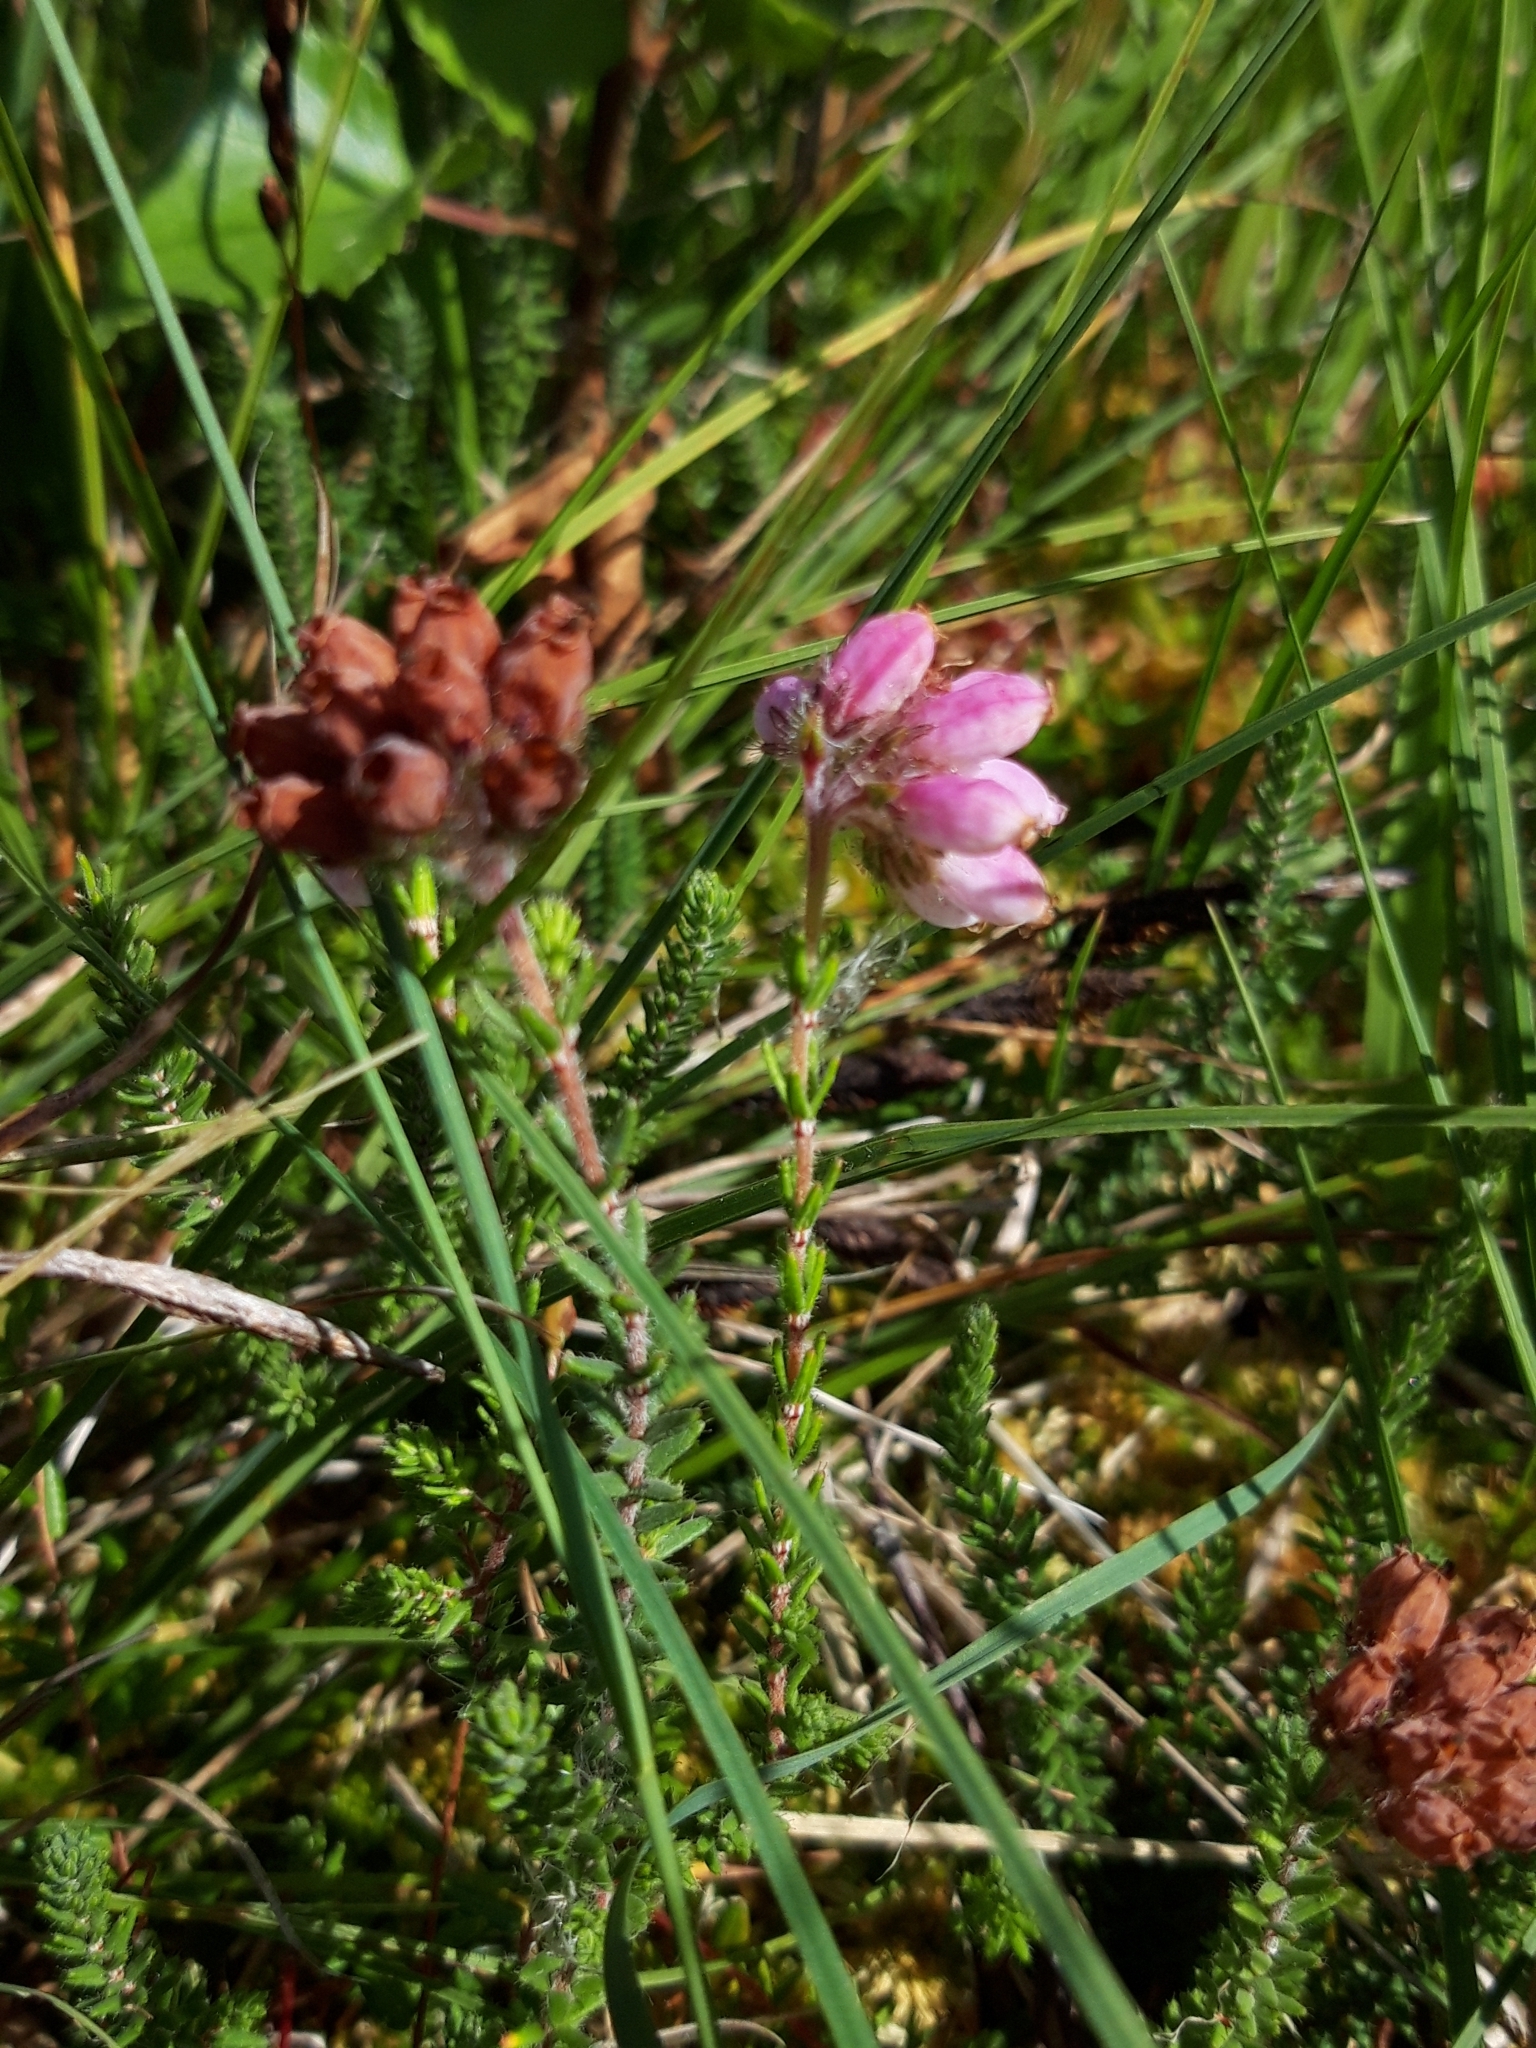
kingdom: Plantae
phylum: Tracheophyta
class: Magnoliopsida
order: Ericales
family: Ericaceae
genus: Erica
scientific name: Erica tetralix
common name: Cross-leaved heath
